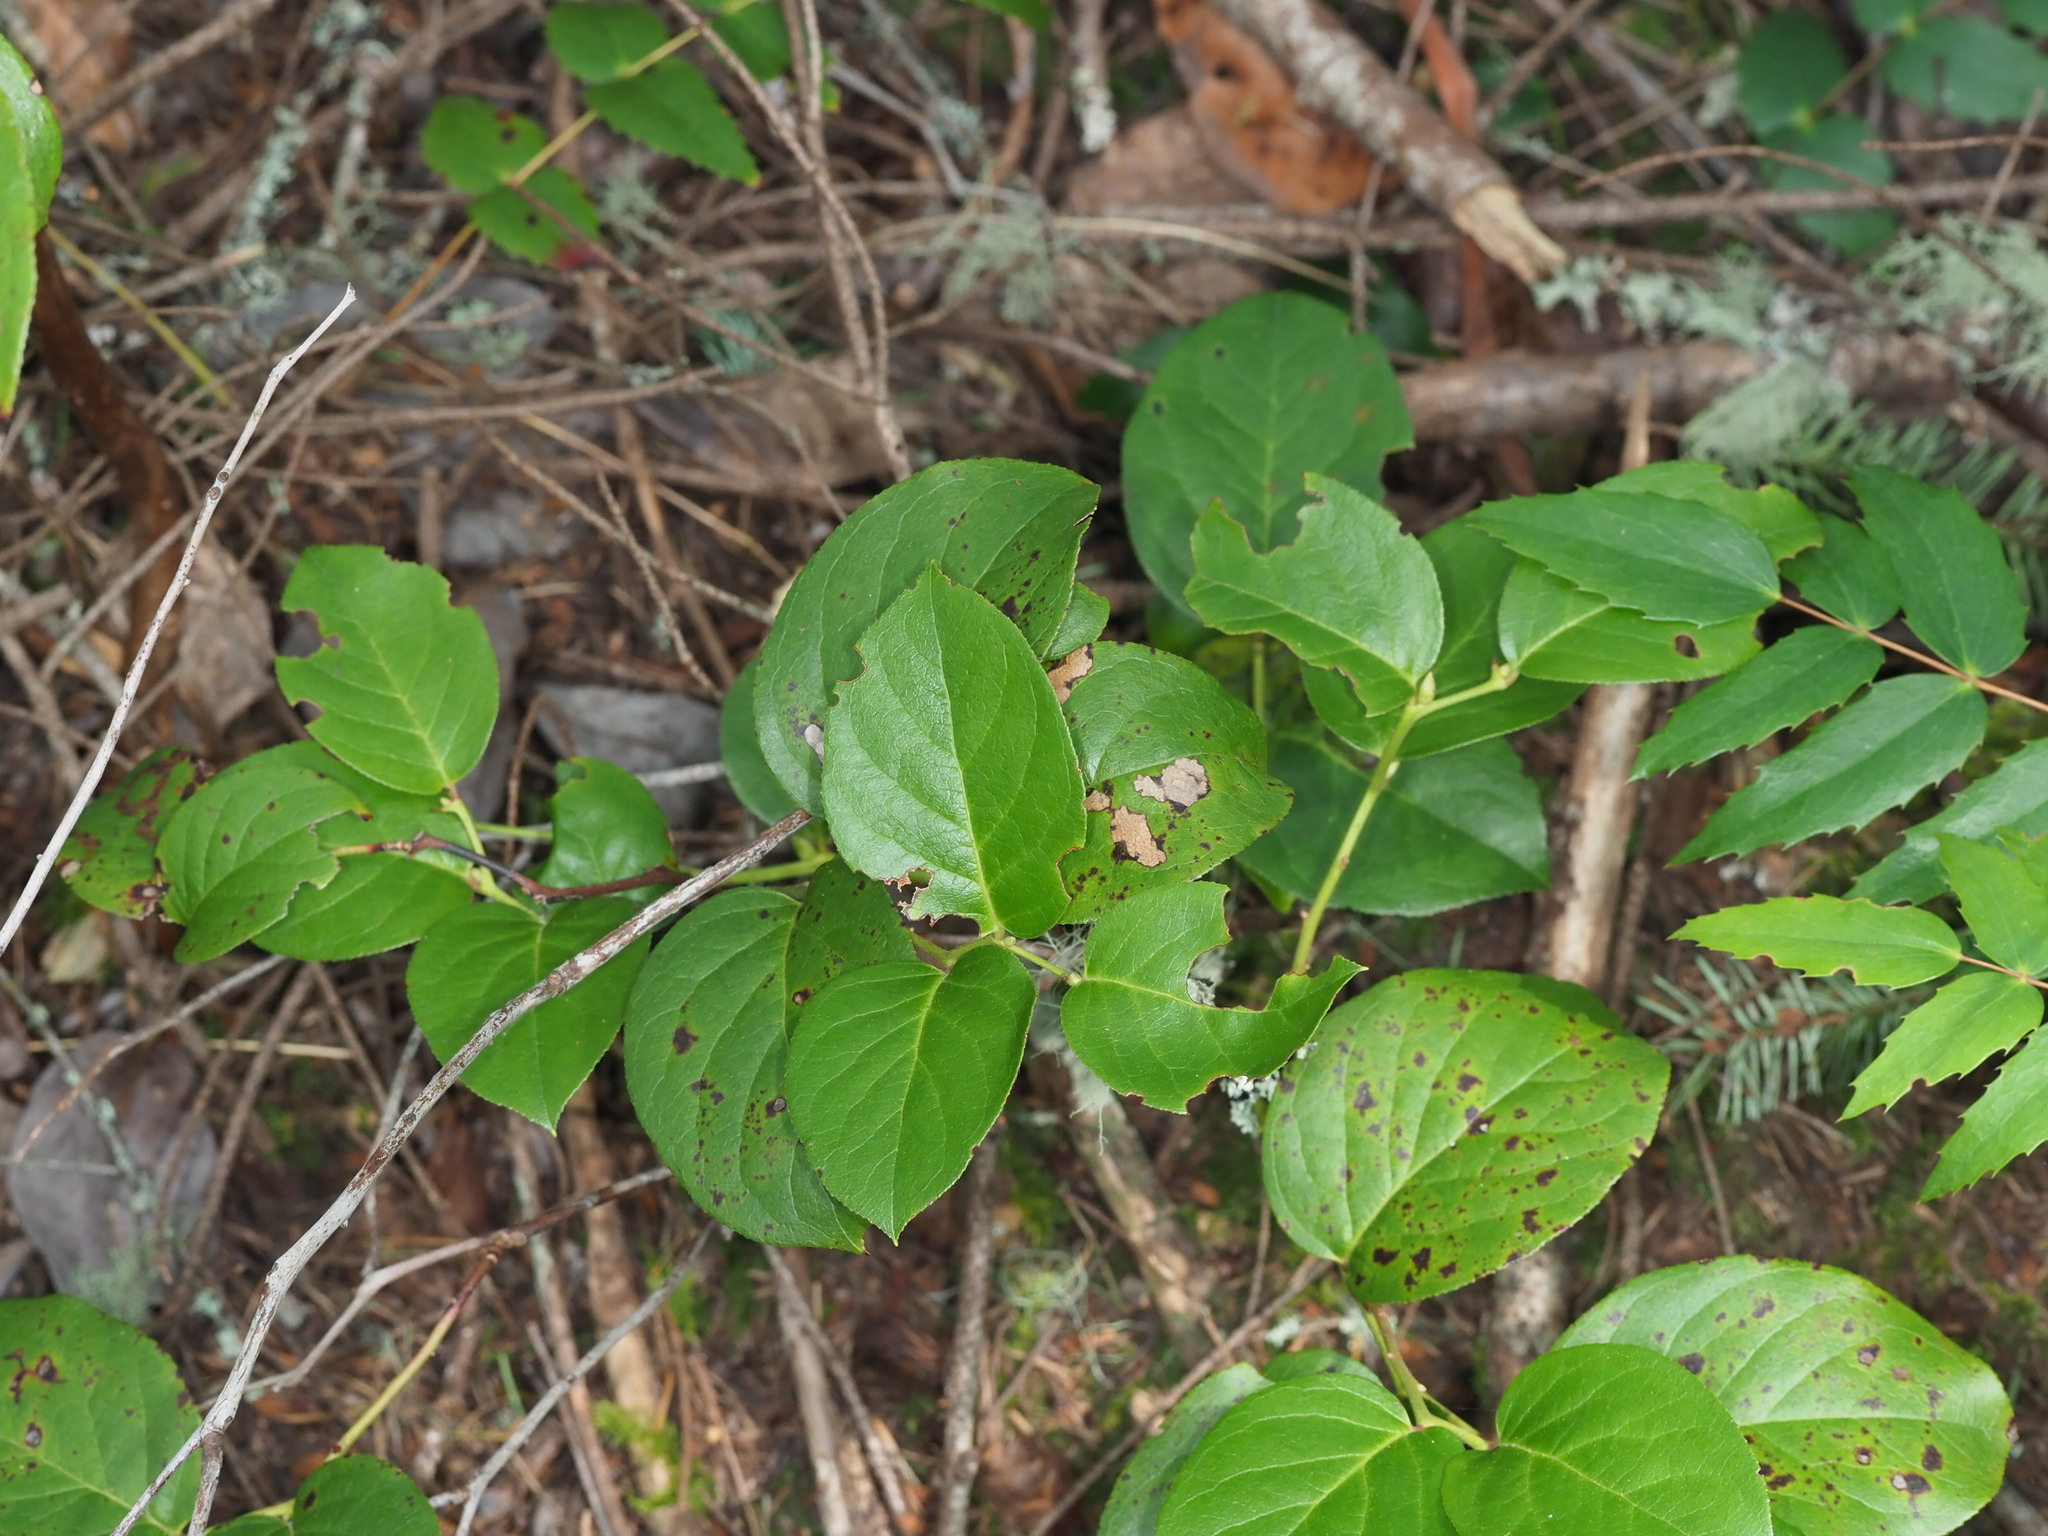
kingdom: Plantae
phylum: Tracheophyta
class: Magnoliopsida
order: Ericales
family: Ericaceae
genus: Gaultheria
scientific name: Gaultheria shallon
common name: Shallon
